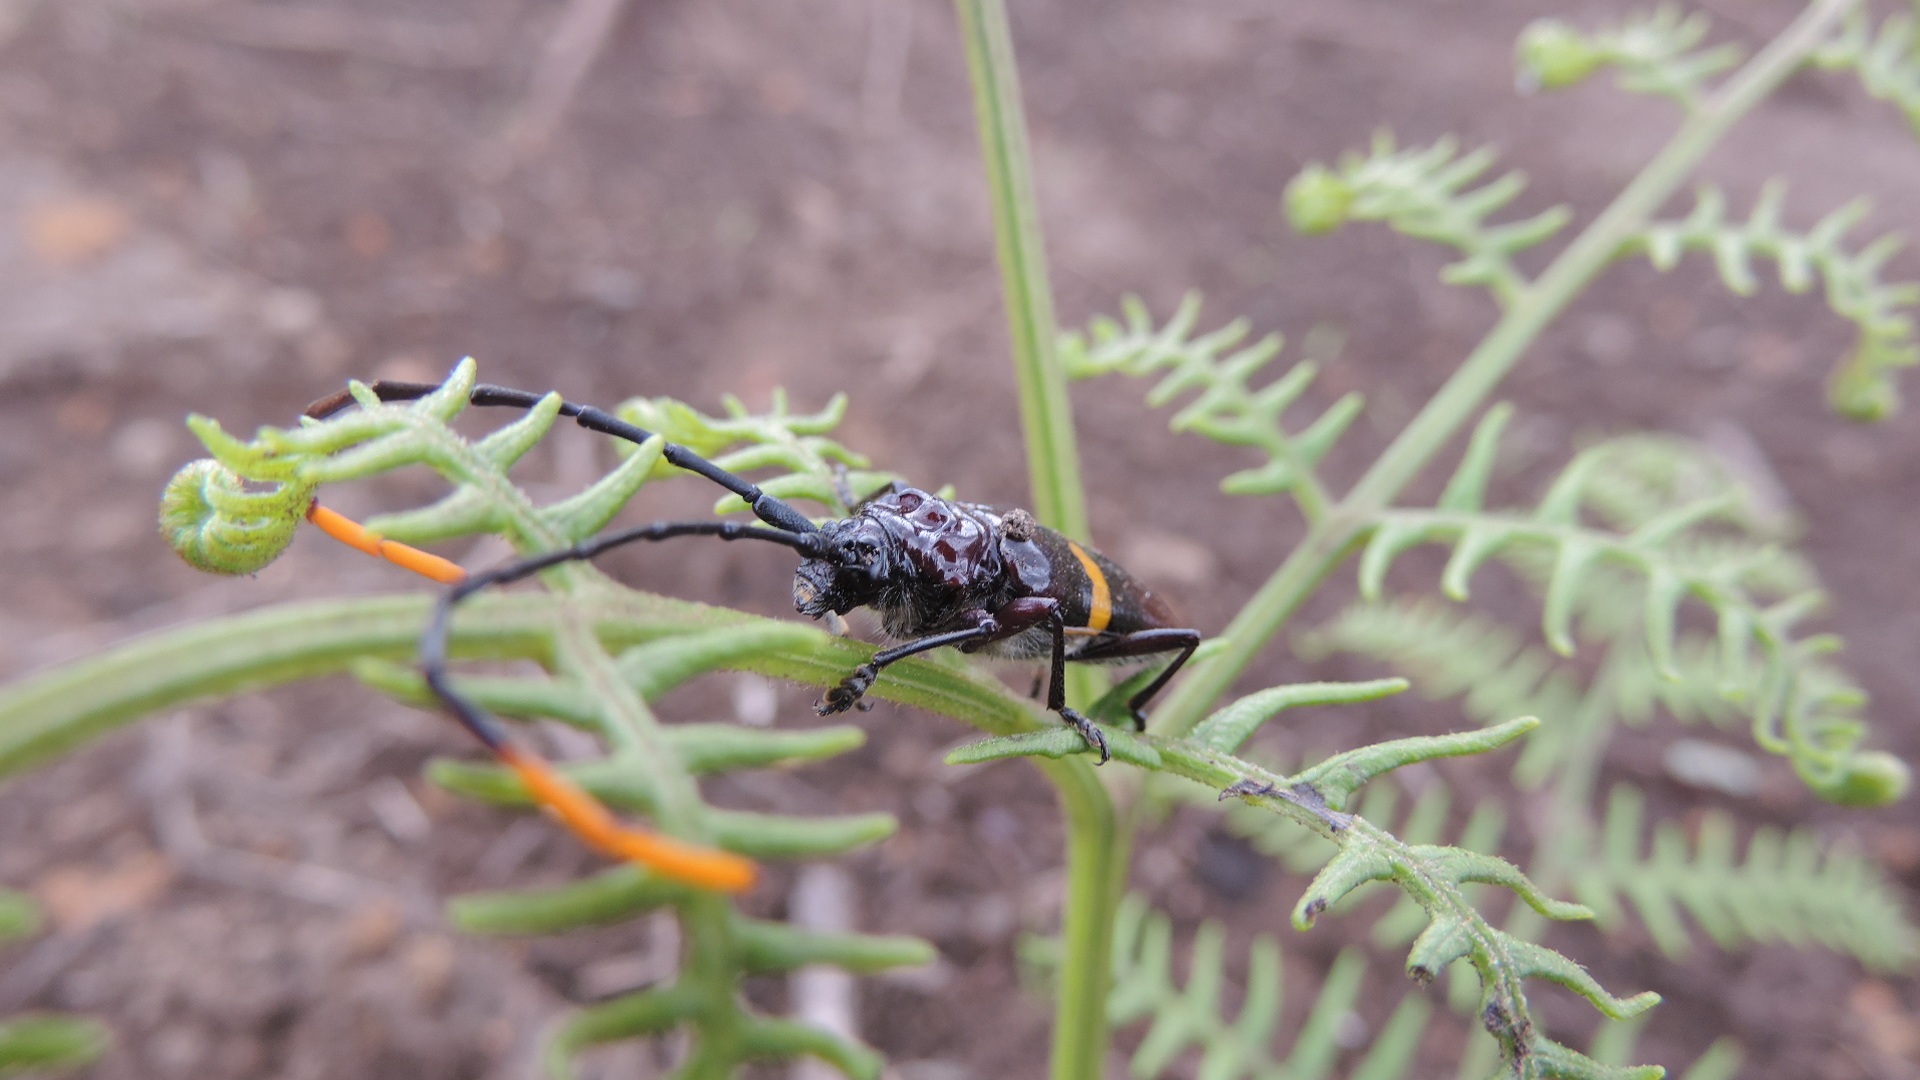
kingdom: Animalia
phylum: Arthropoda
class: Insecta
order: Coleoptera
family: Cerambycidae
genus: Trachyderes
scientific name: Trachyderes succinctus
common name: Mango longhorn
